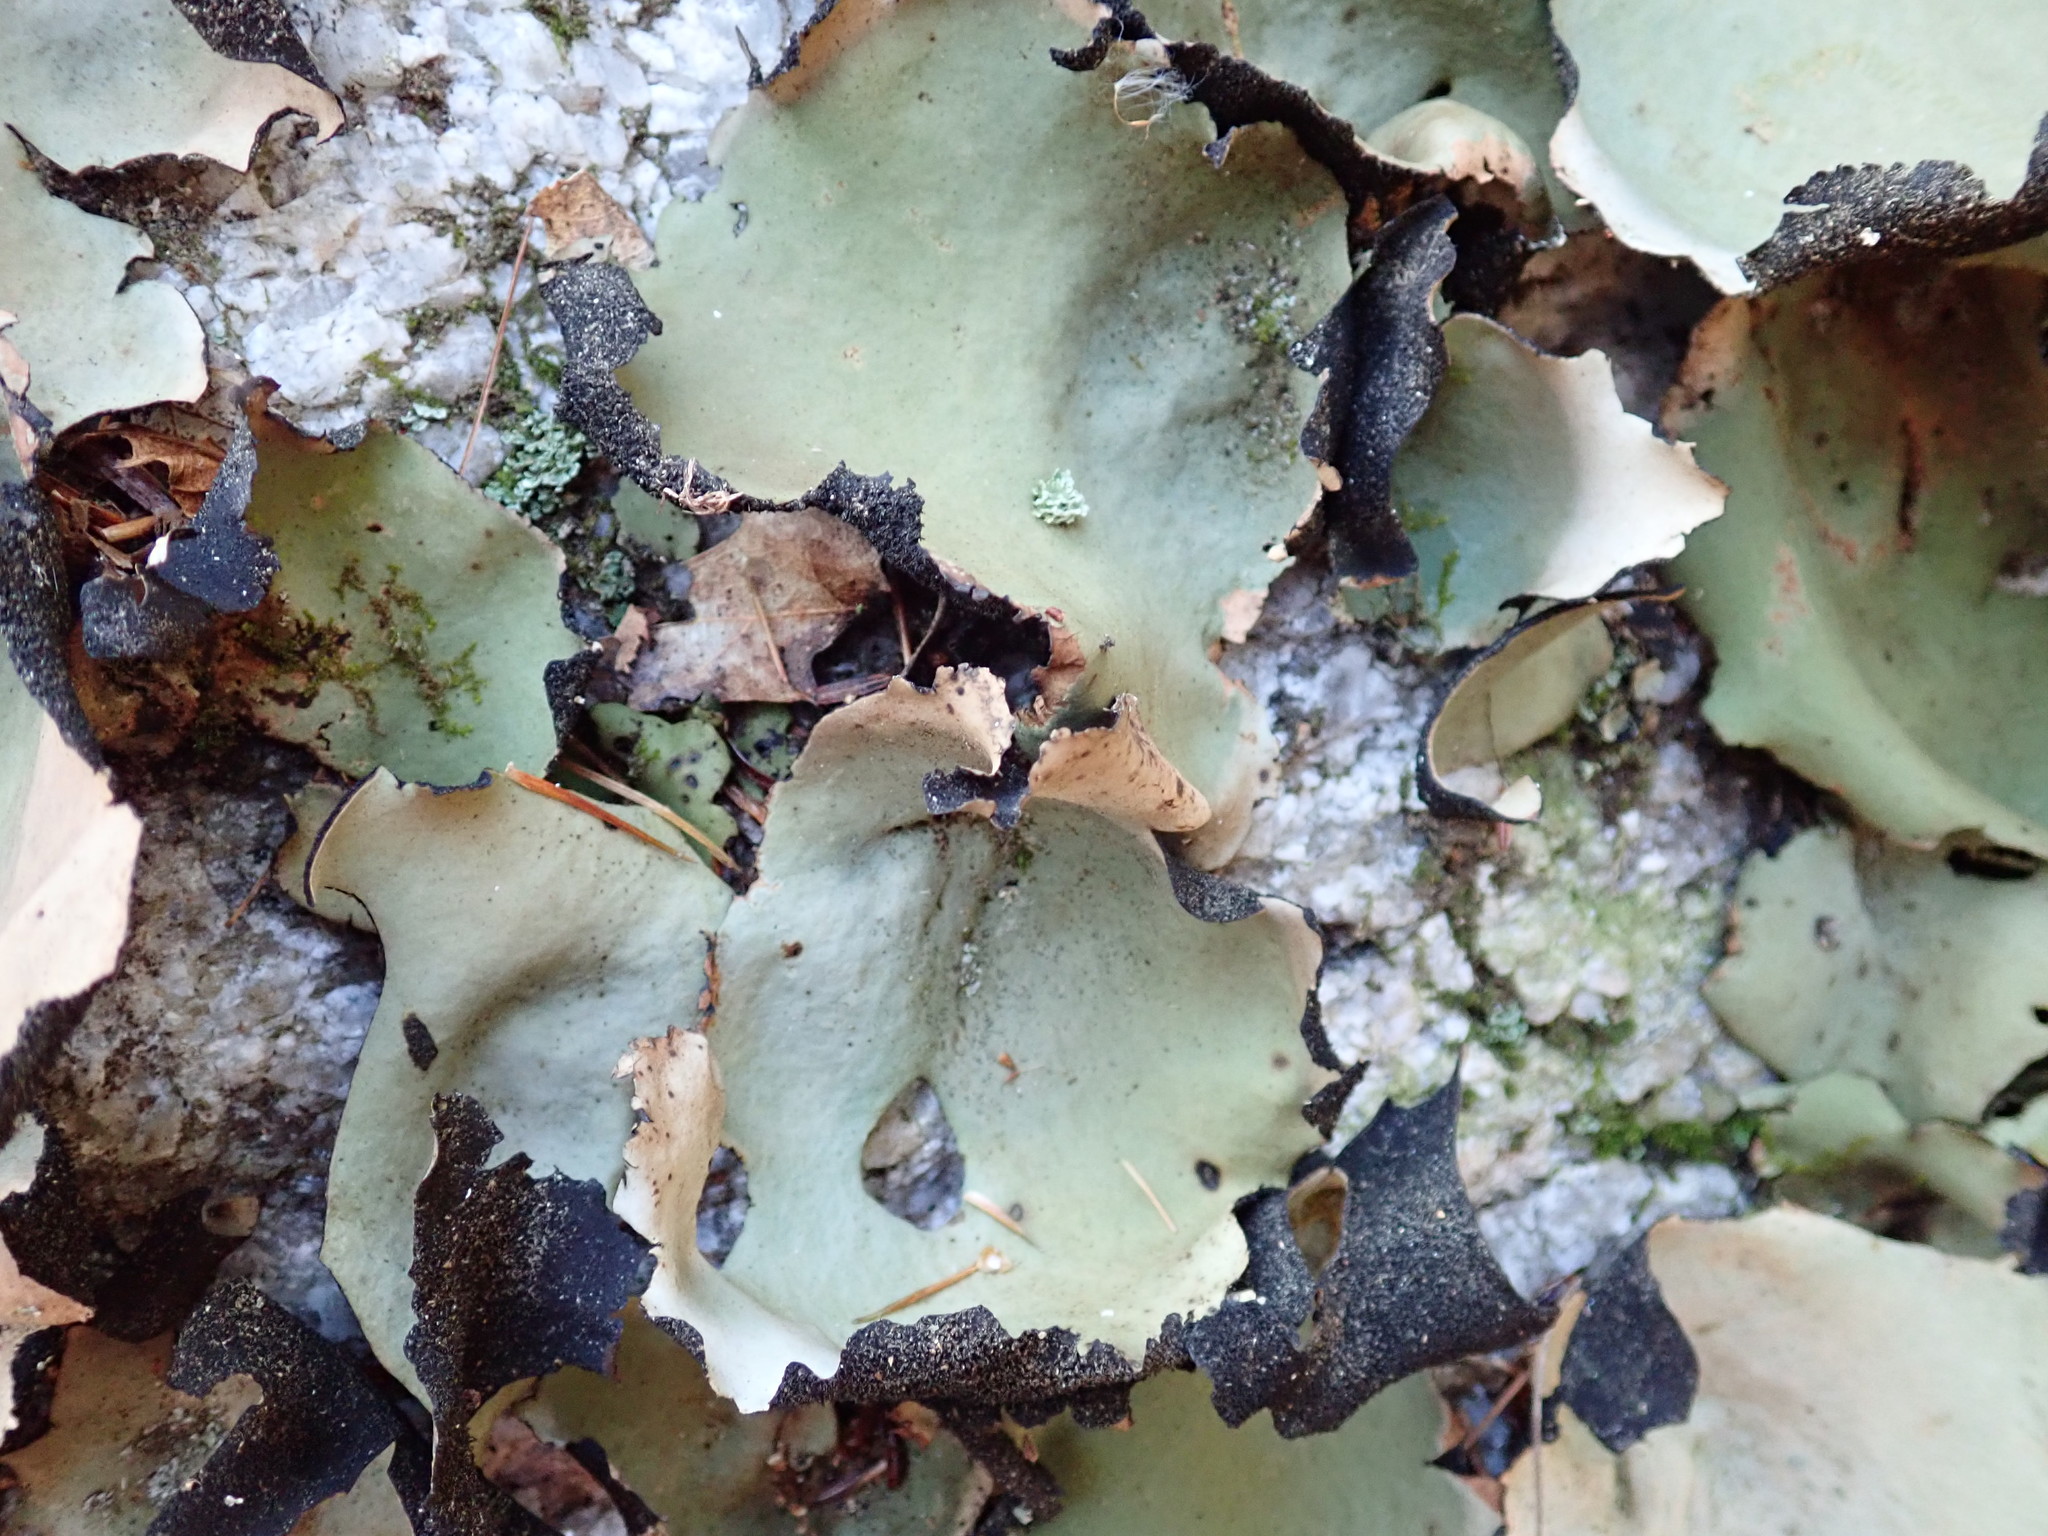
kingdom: Fungi
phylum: Ascomycota
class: Lecanoromycetes
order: Umbilicariales
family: Umbilicariaceae
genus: Umbilicaria
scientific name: Umbilicaria mammulata
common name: Smooth rock tripe
